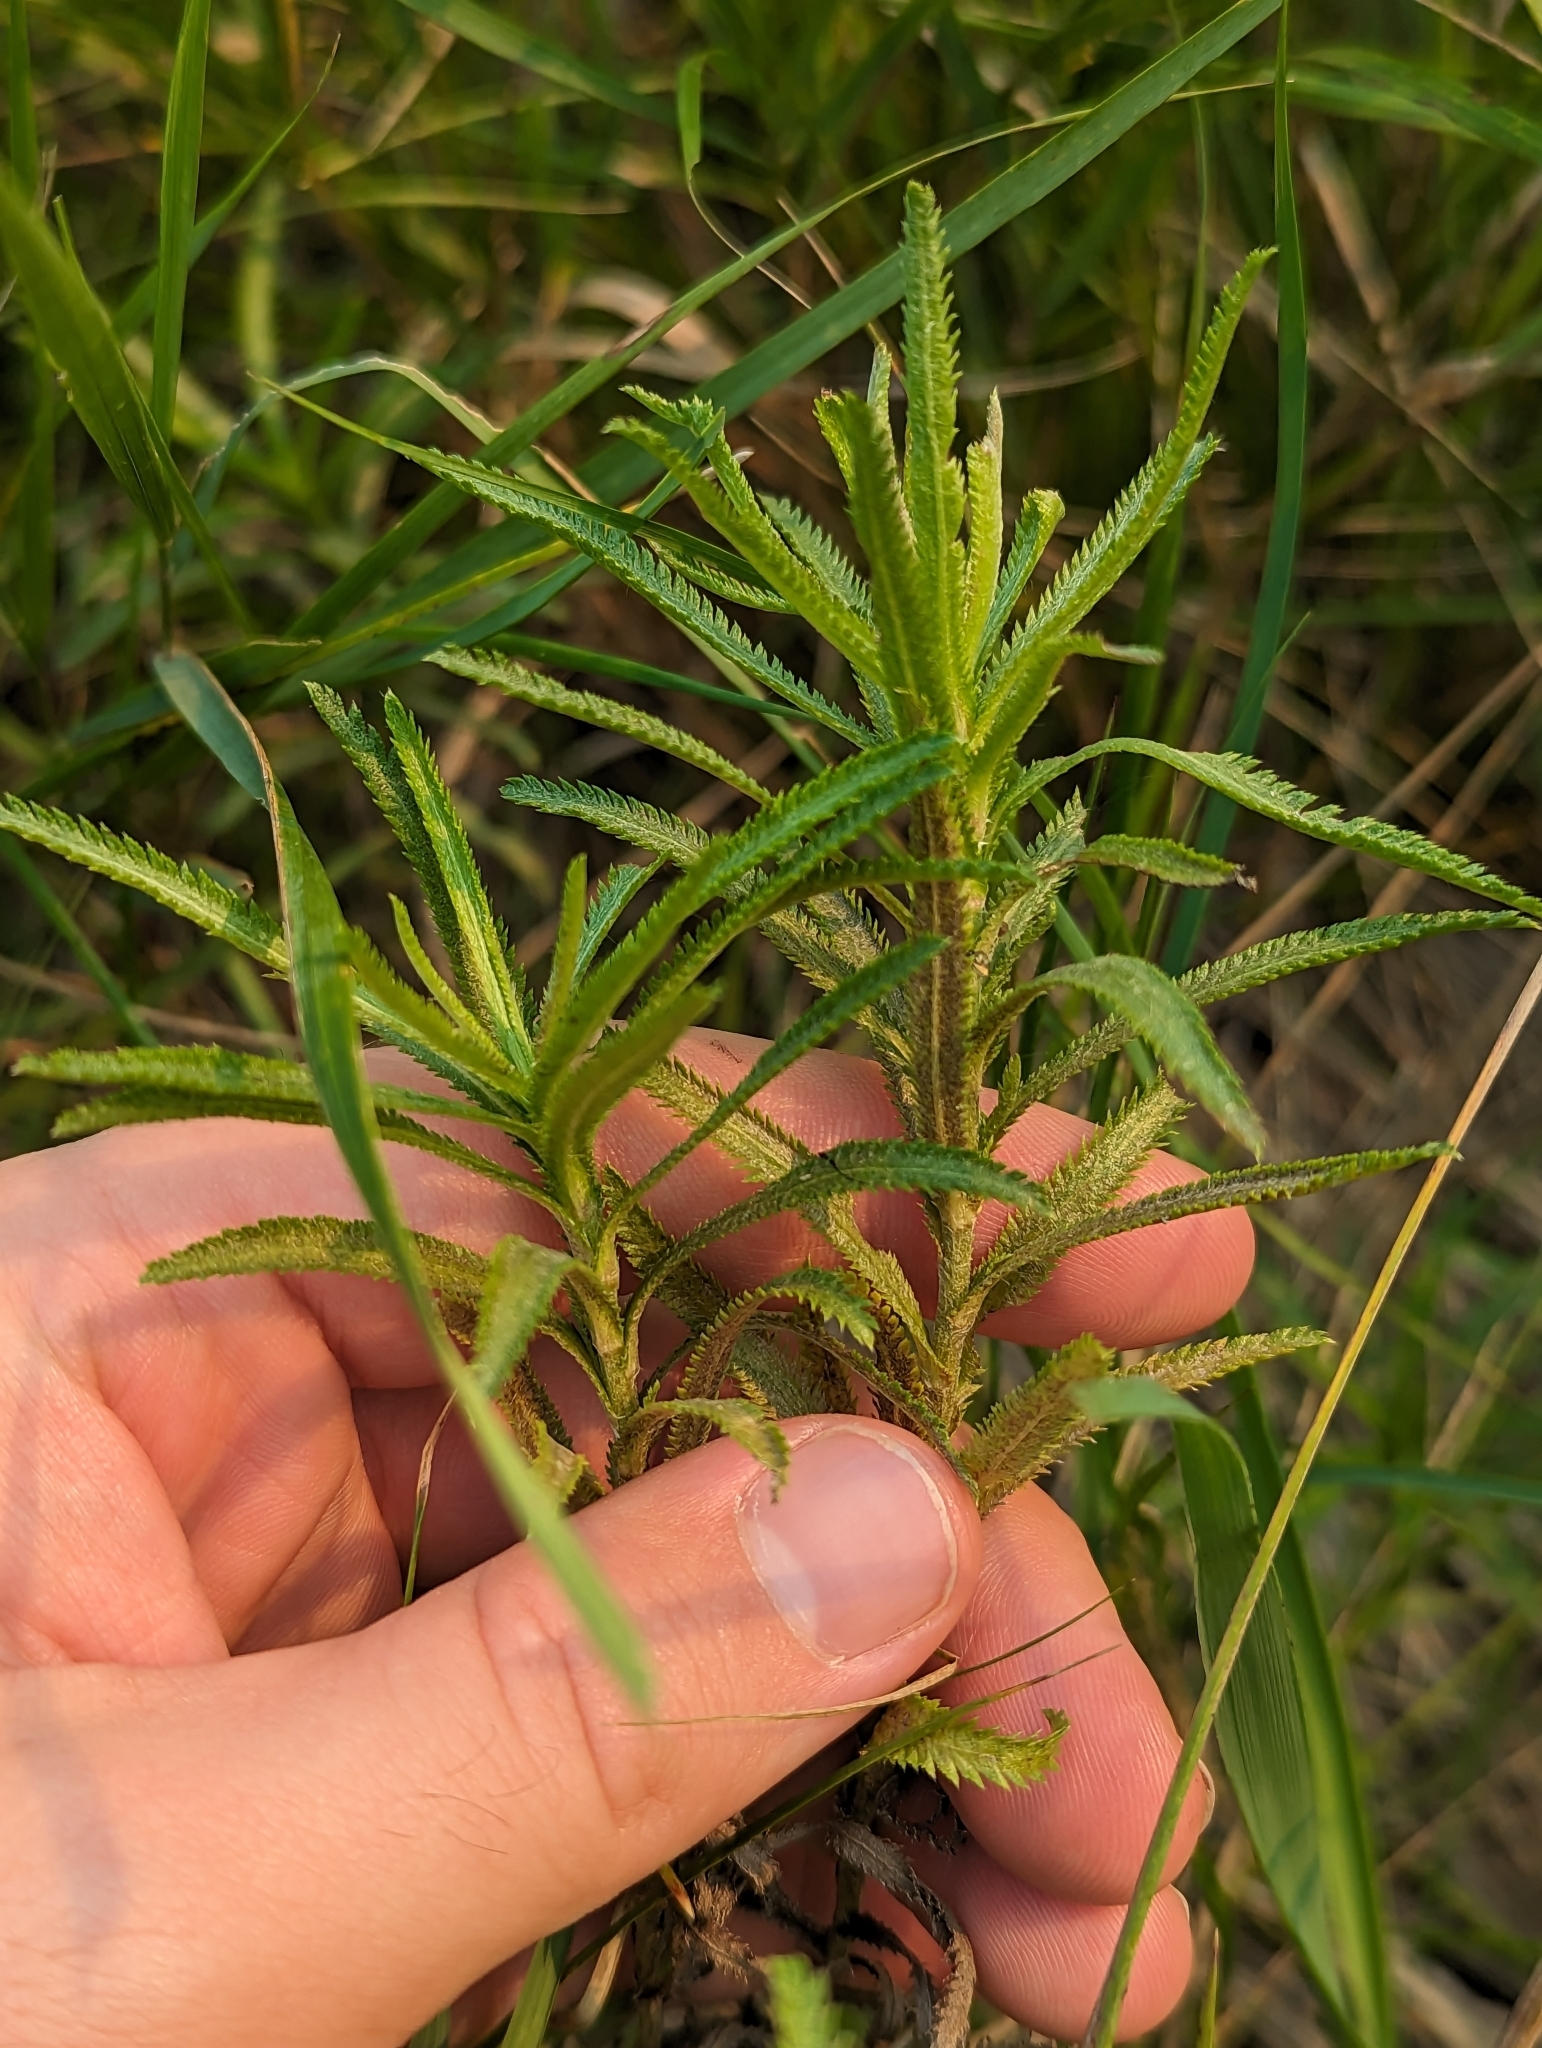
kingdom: Plantae
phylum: Tracheophyta
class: Magnoliopsida
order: Asterales
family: Asteraceae
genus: Achillea
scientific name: Achillea alpina
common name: Siberian yarrow
